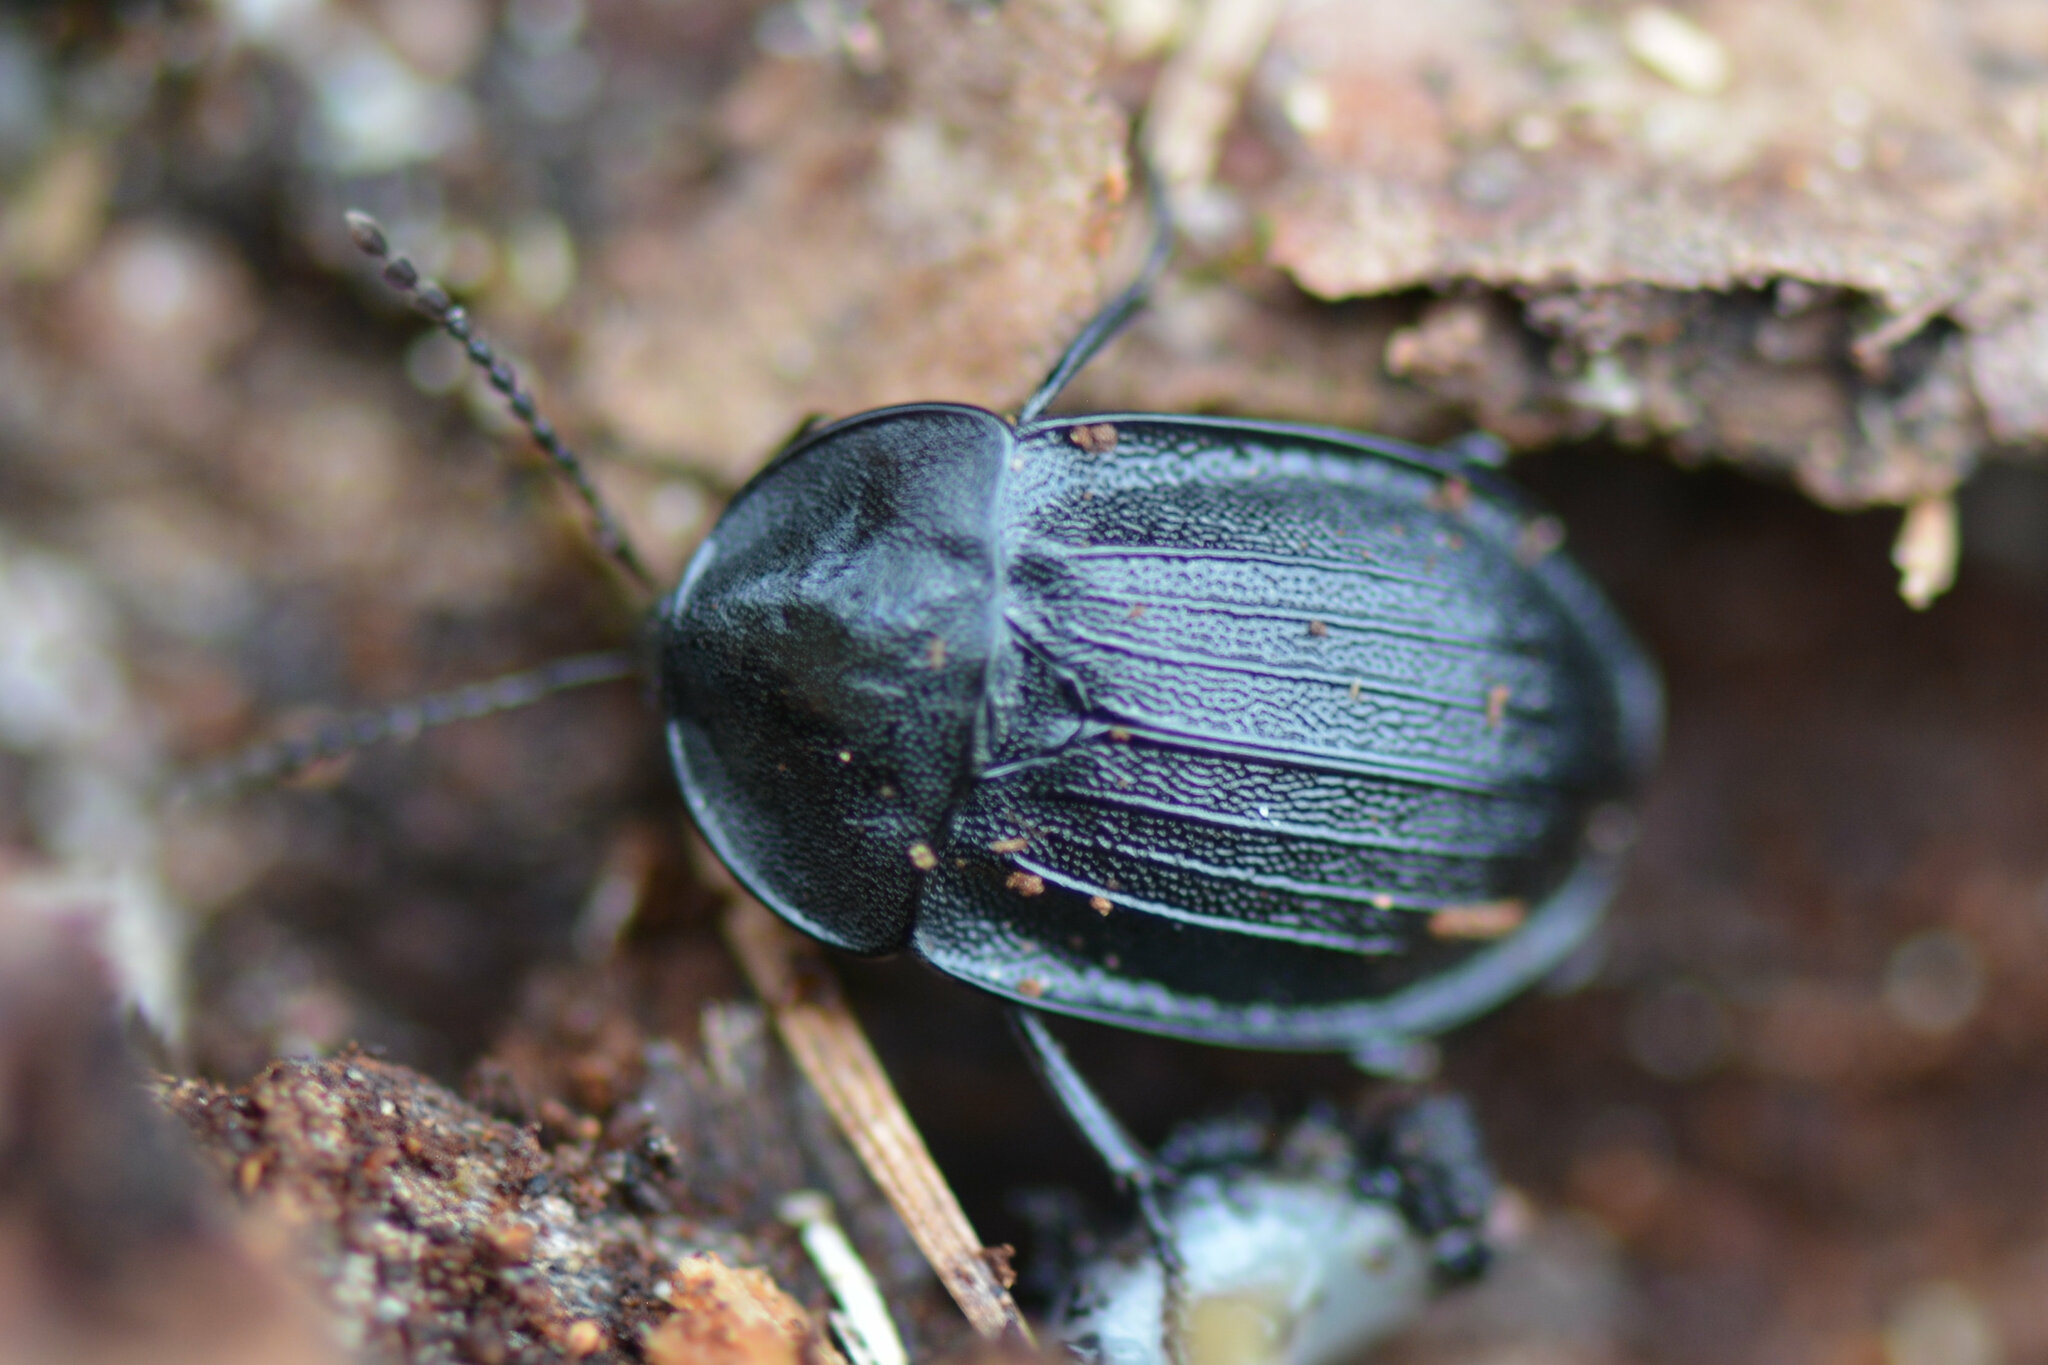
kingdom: Animalia
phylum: Arthropoda
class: Insecta
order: Coleoptera
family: Staphylinidae
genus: Silpha
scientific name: Silpha atrata
